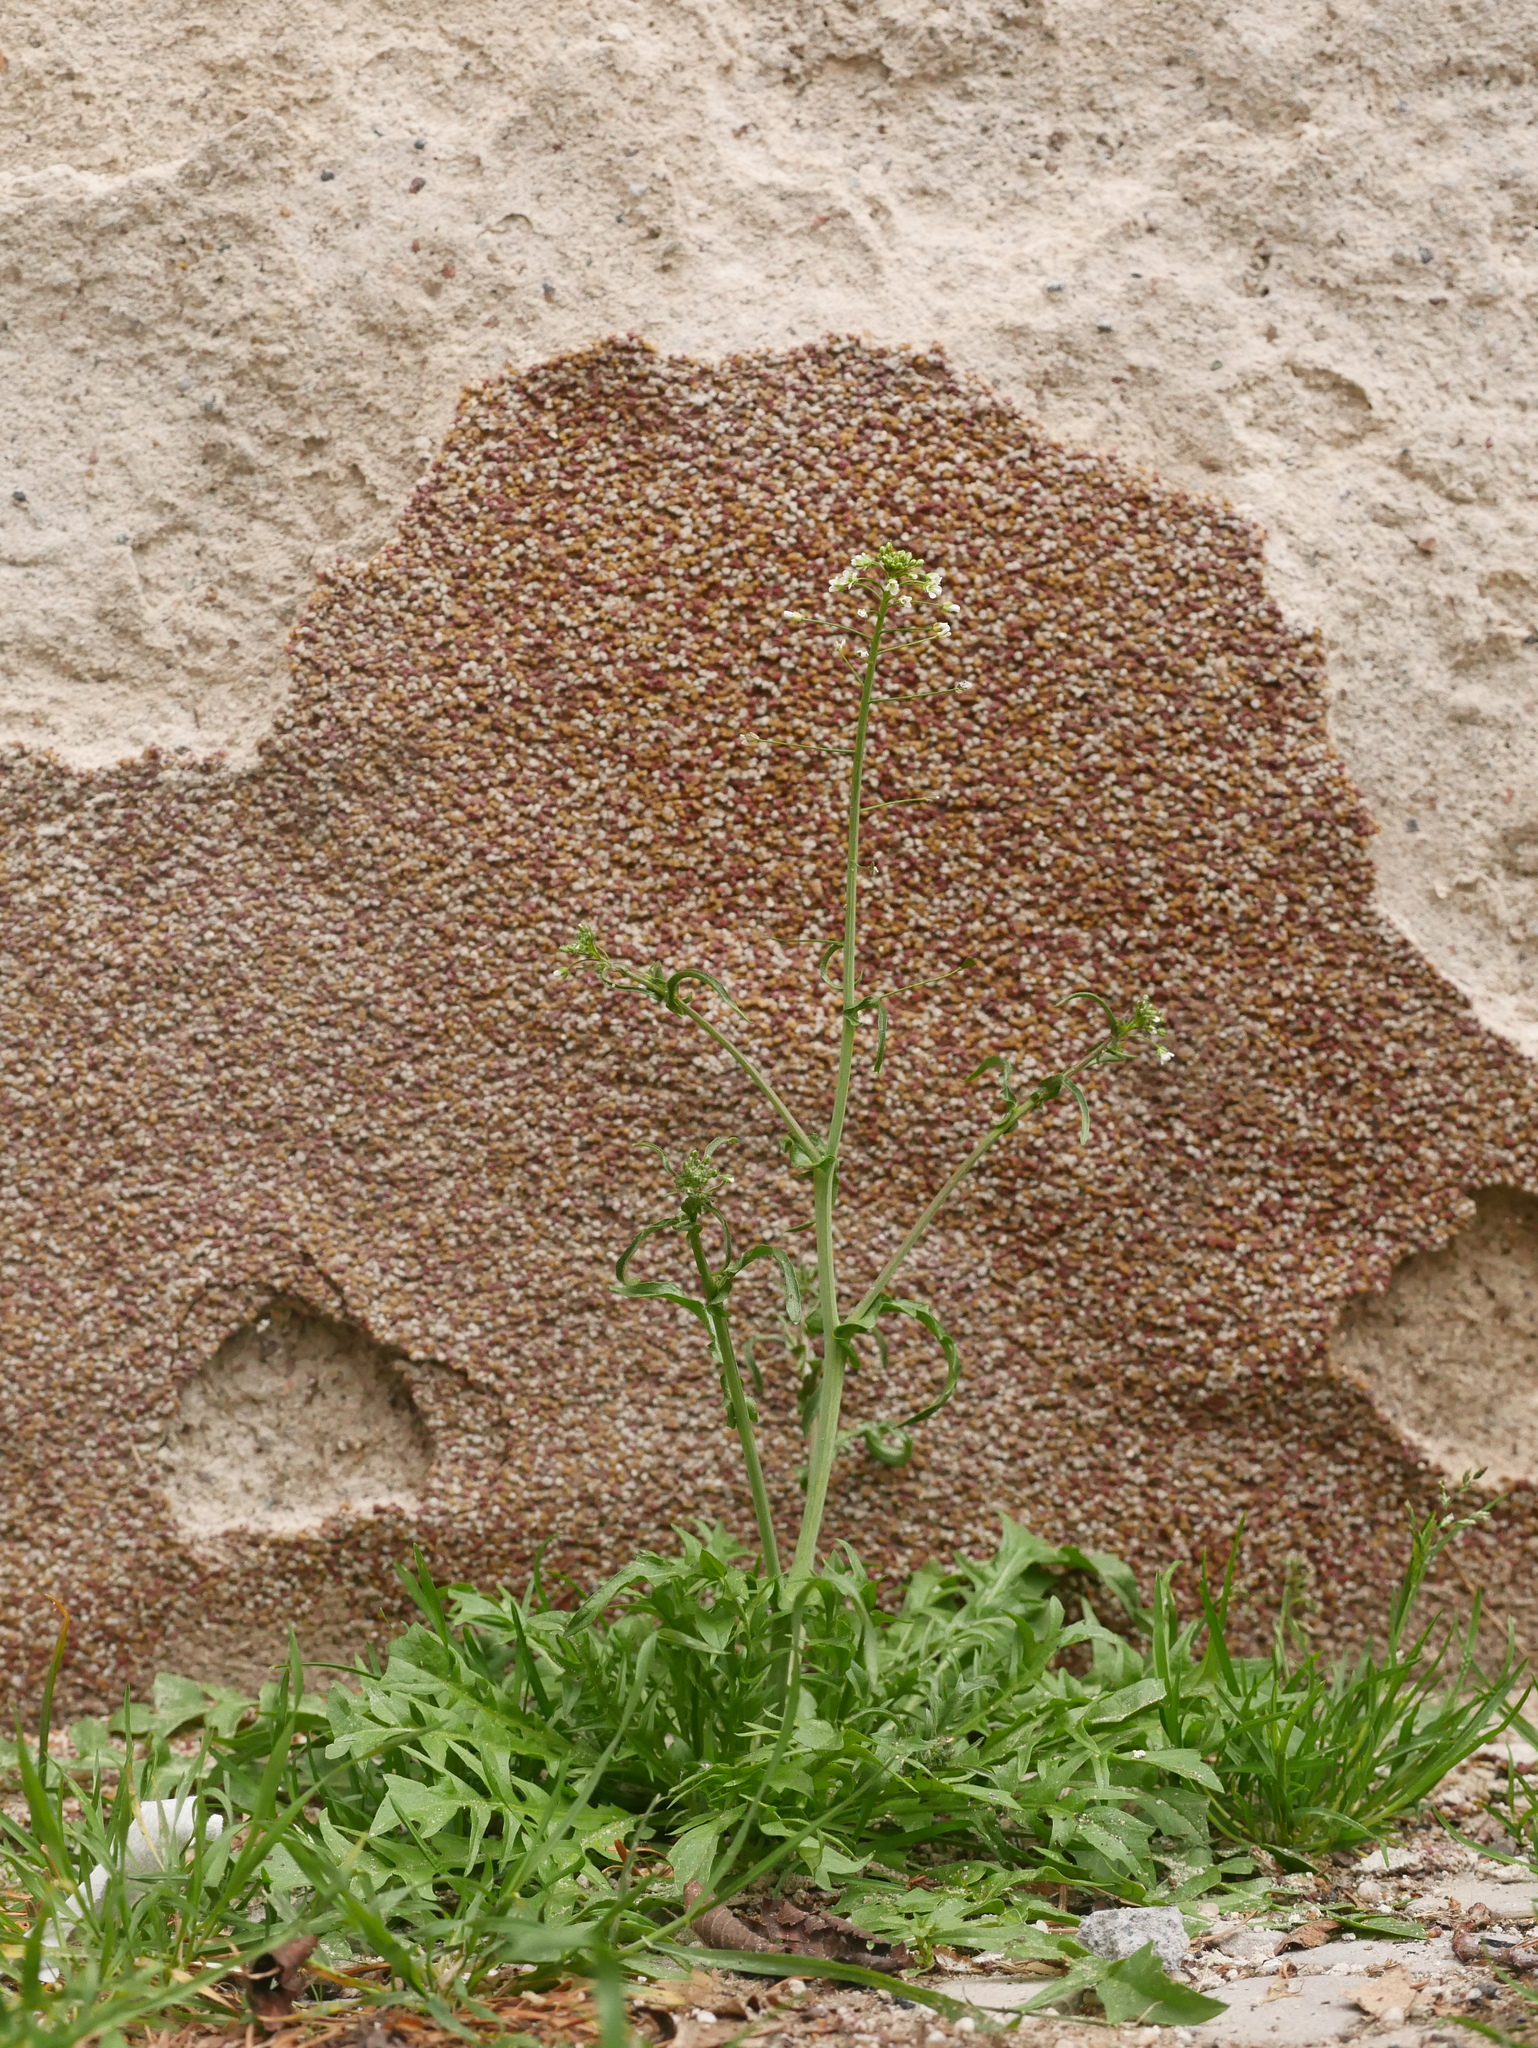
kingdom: Plantae
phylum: Tracheophyta
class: Magnoliopsida
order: Brassicales
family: Brassicaceae
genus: Capsella
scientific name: Capsella bursa-pastoris
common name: Shepherd's purse
